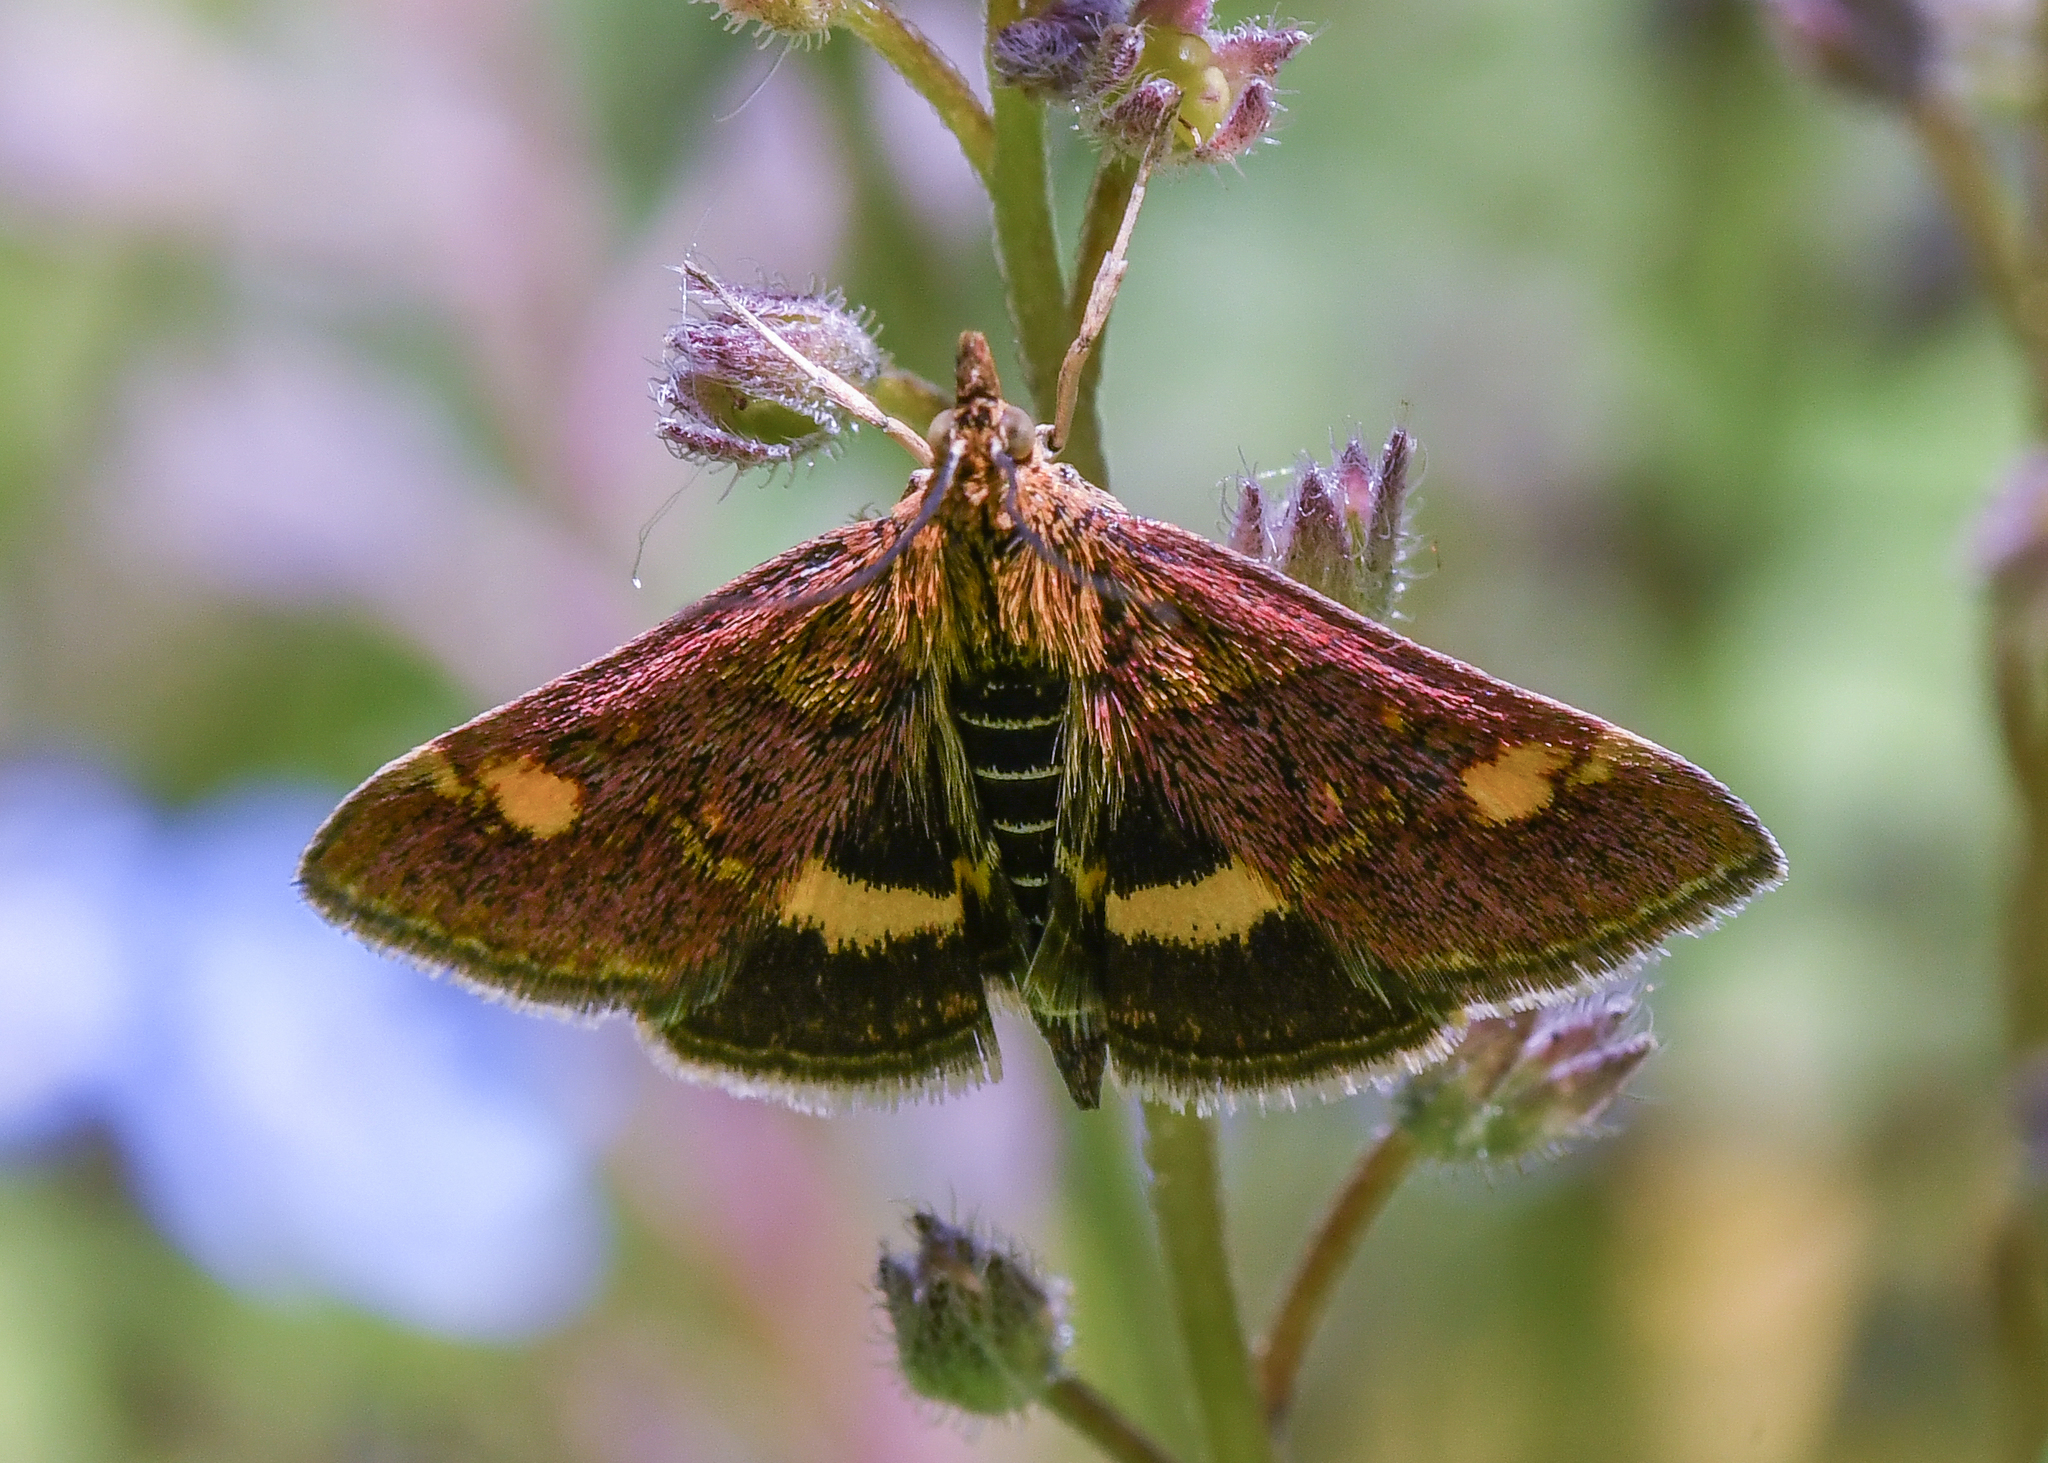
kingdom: Animalia
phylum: Arthropoda
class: Insecta
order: Lepidoptera
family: Crambidae
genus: Pyrausta
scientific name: Pyrausta aurata
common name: Small purple & gold
